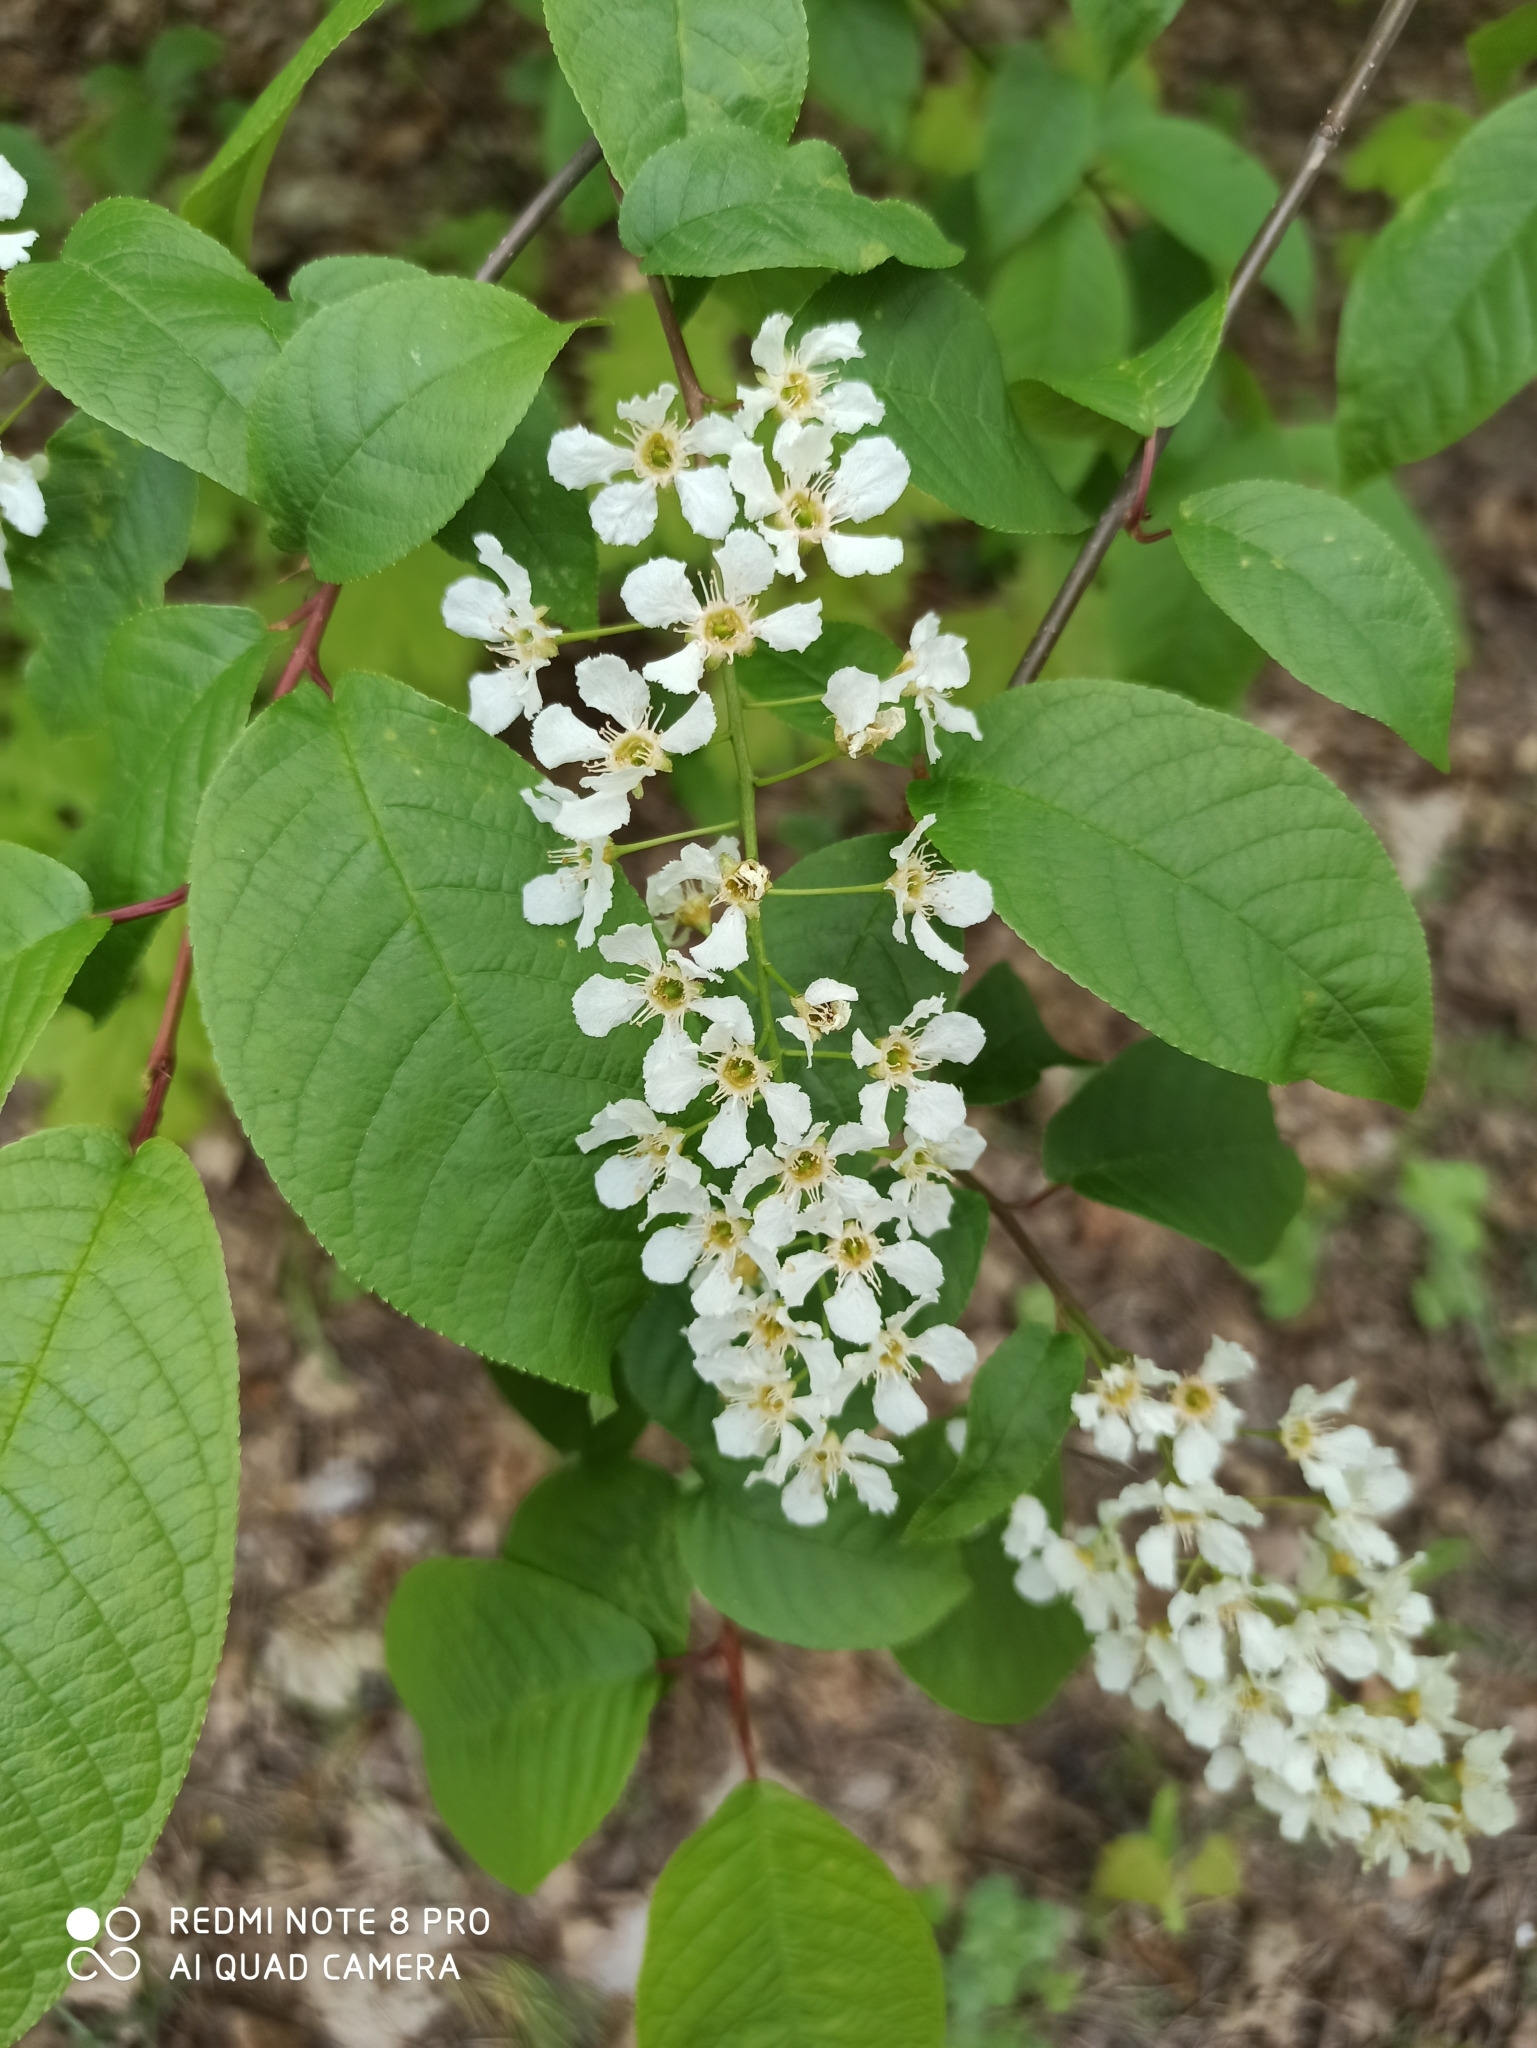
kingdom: Plantae
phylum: Tracheophyta
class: Magnoliopsida
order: Rosales
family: Rosaceae
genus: Prunus
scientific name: Prunus padus
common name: Bird cherry
